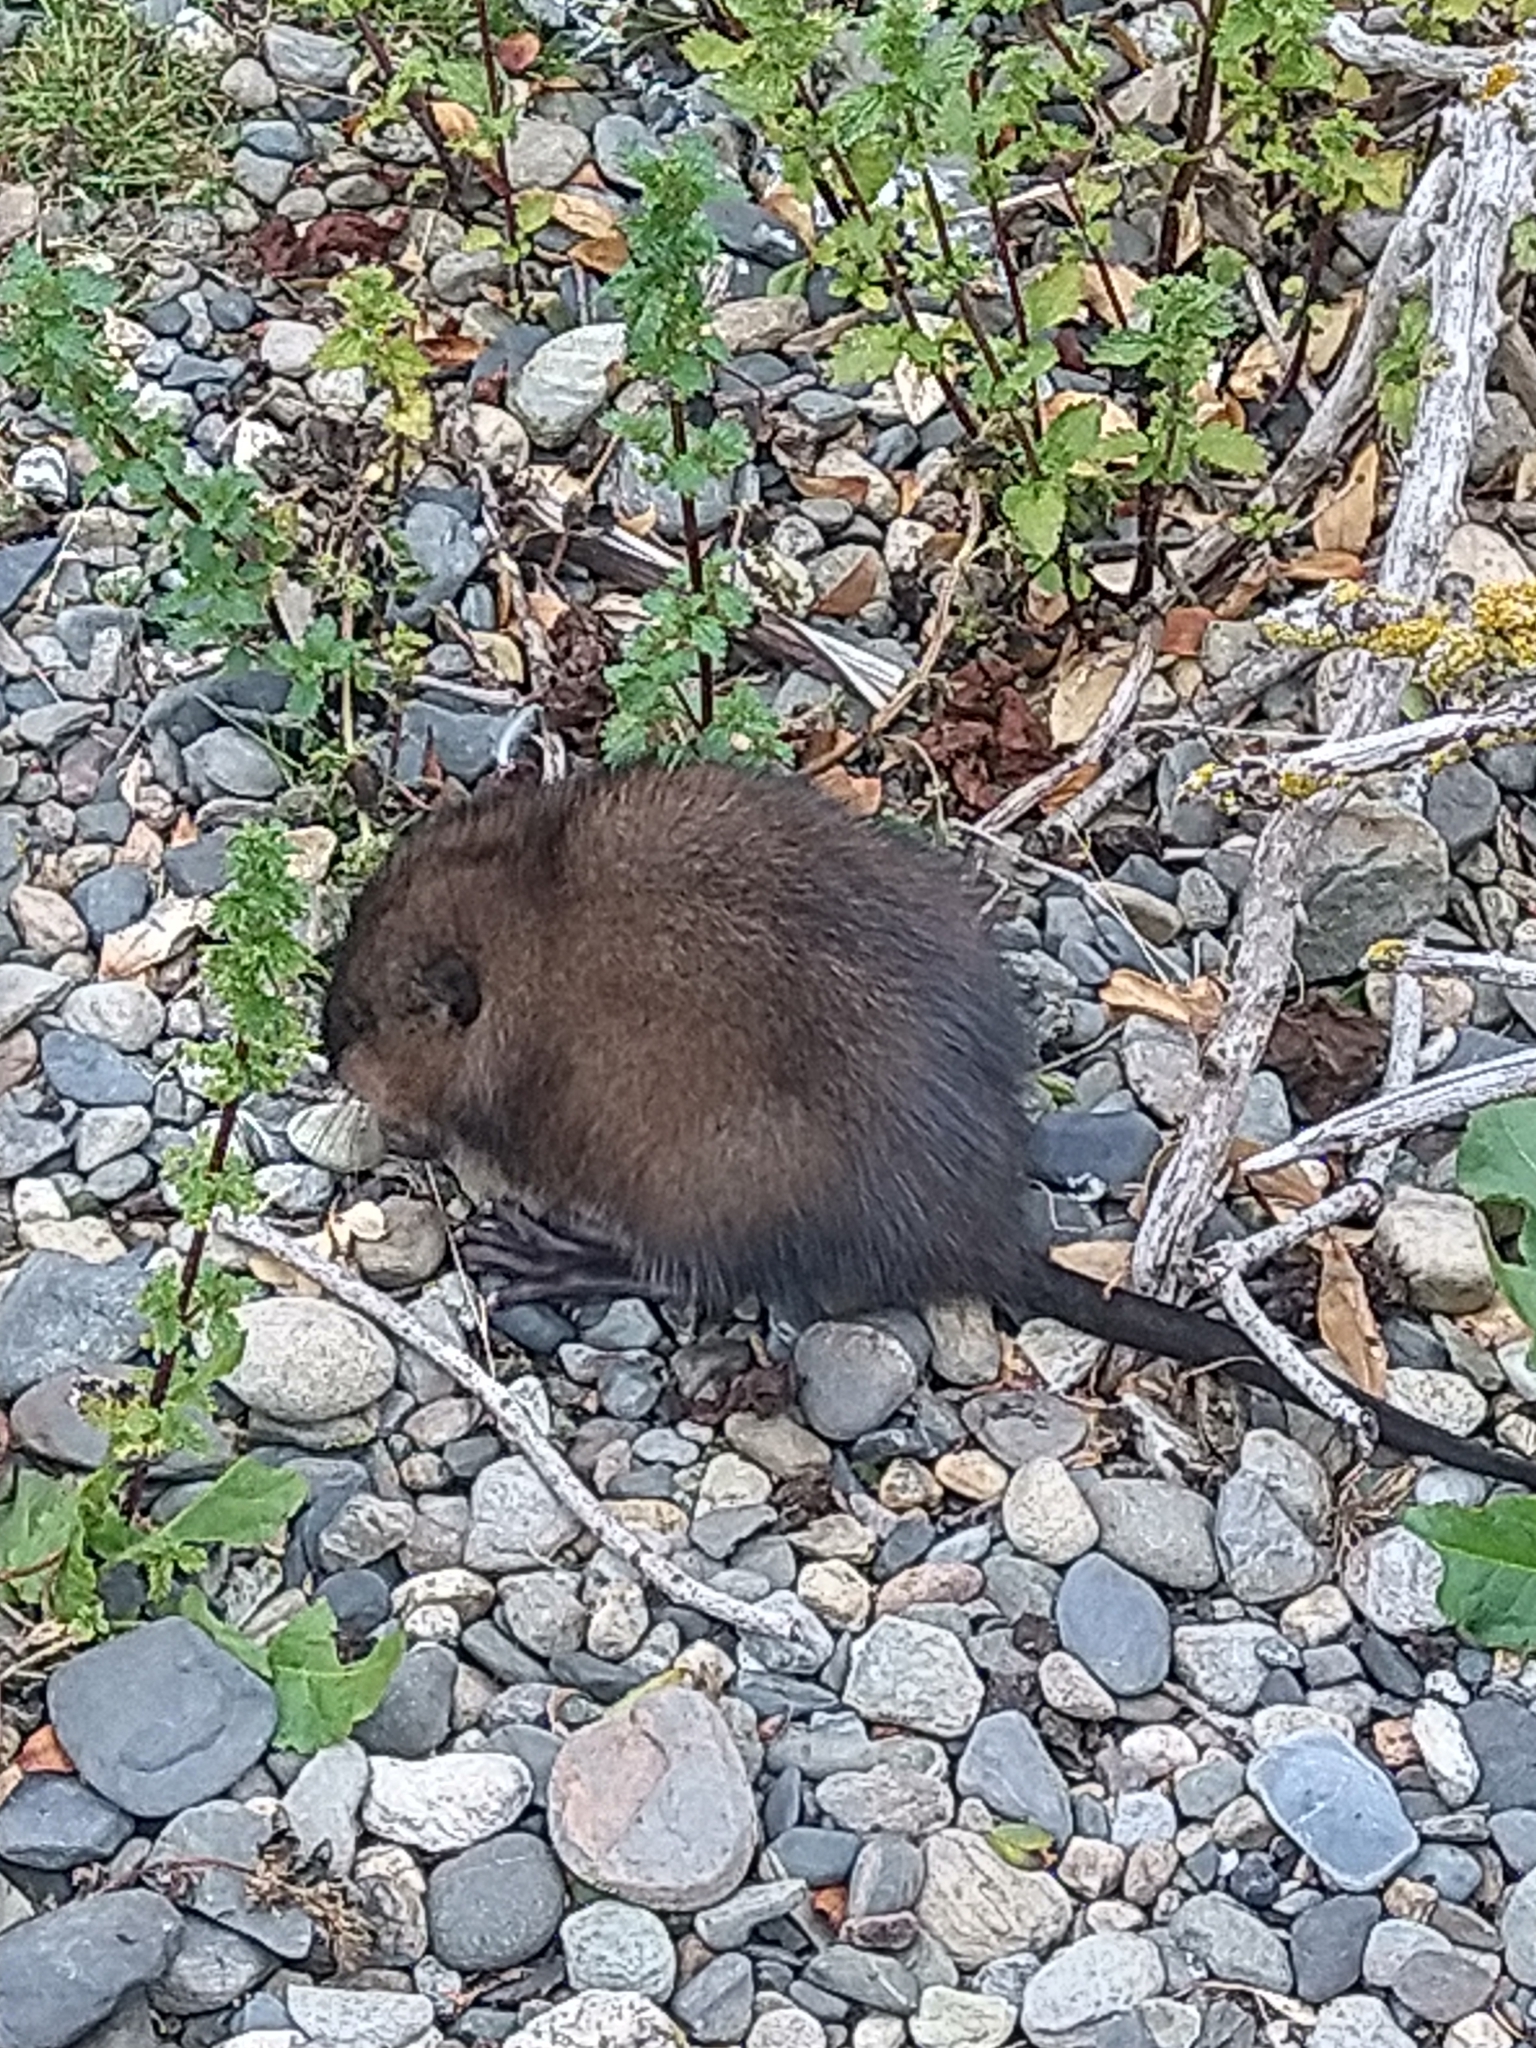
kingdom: Animalia
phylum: Chordata
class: Mammalia
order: Rodentia
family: Cricetidae
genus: Ondatra
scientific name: Ondatra zibethicus
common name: Muskrat
